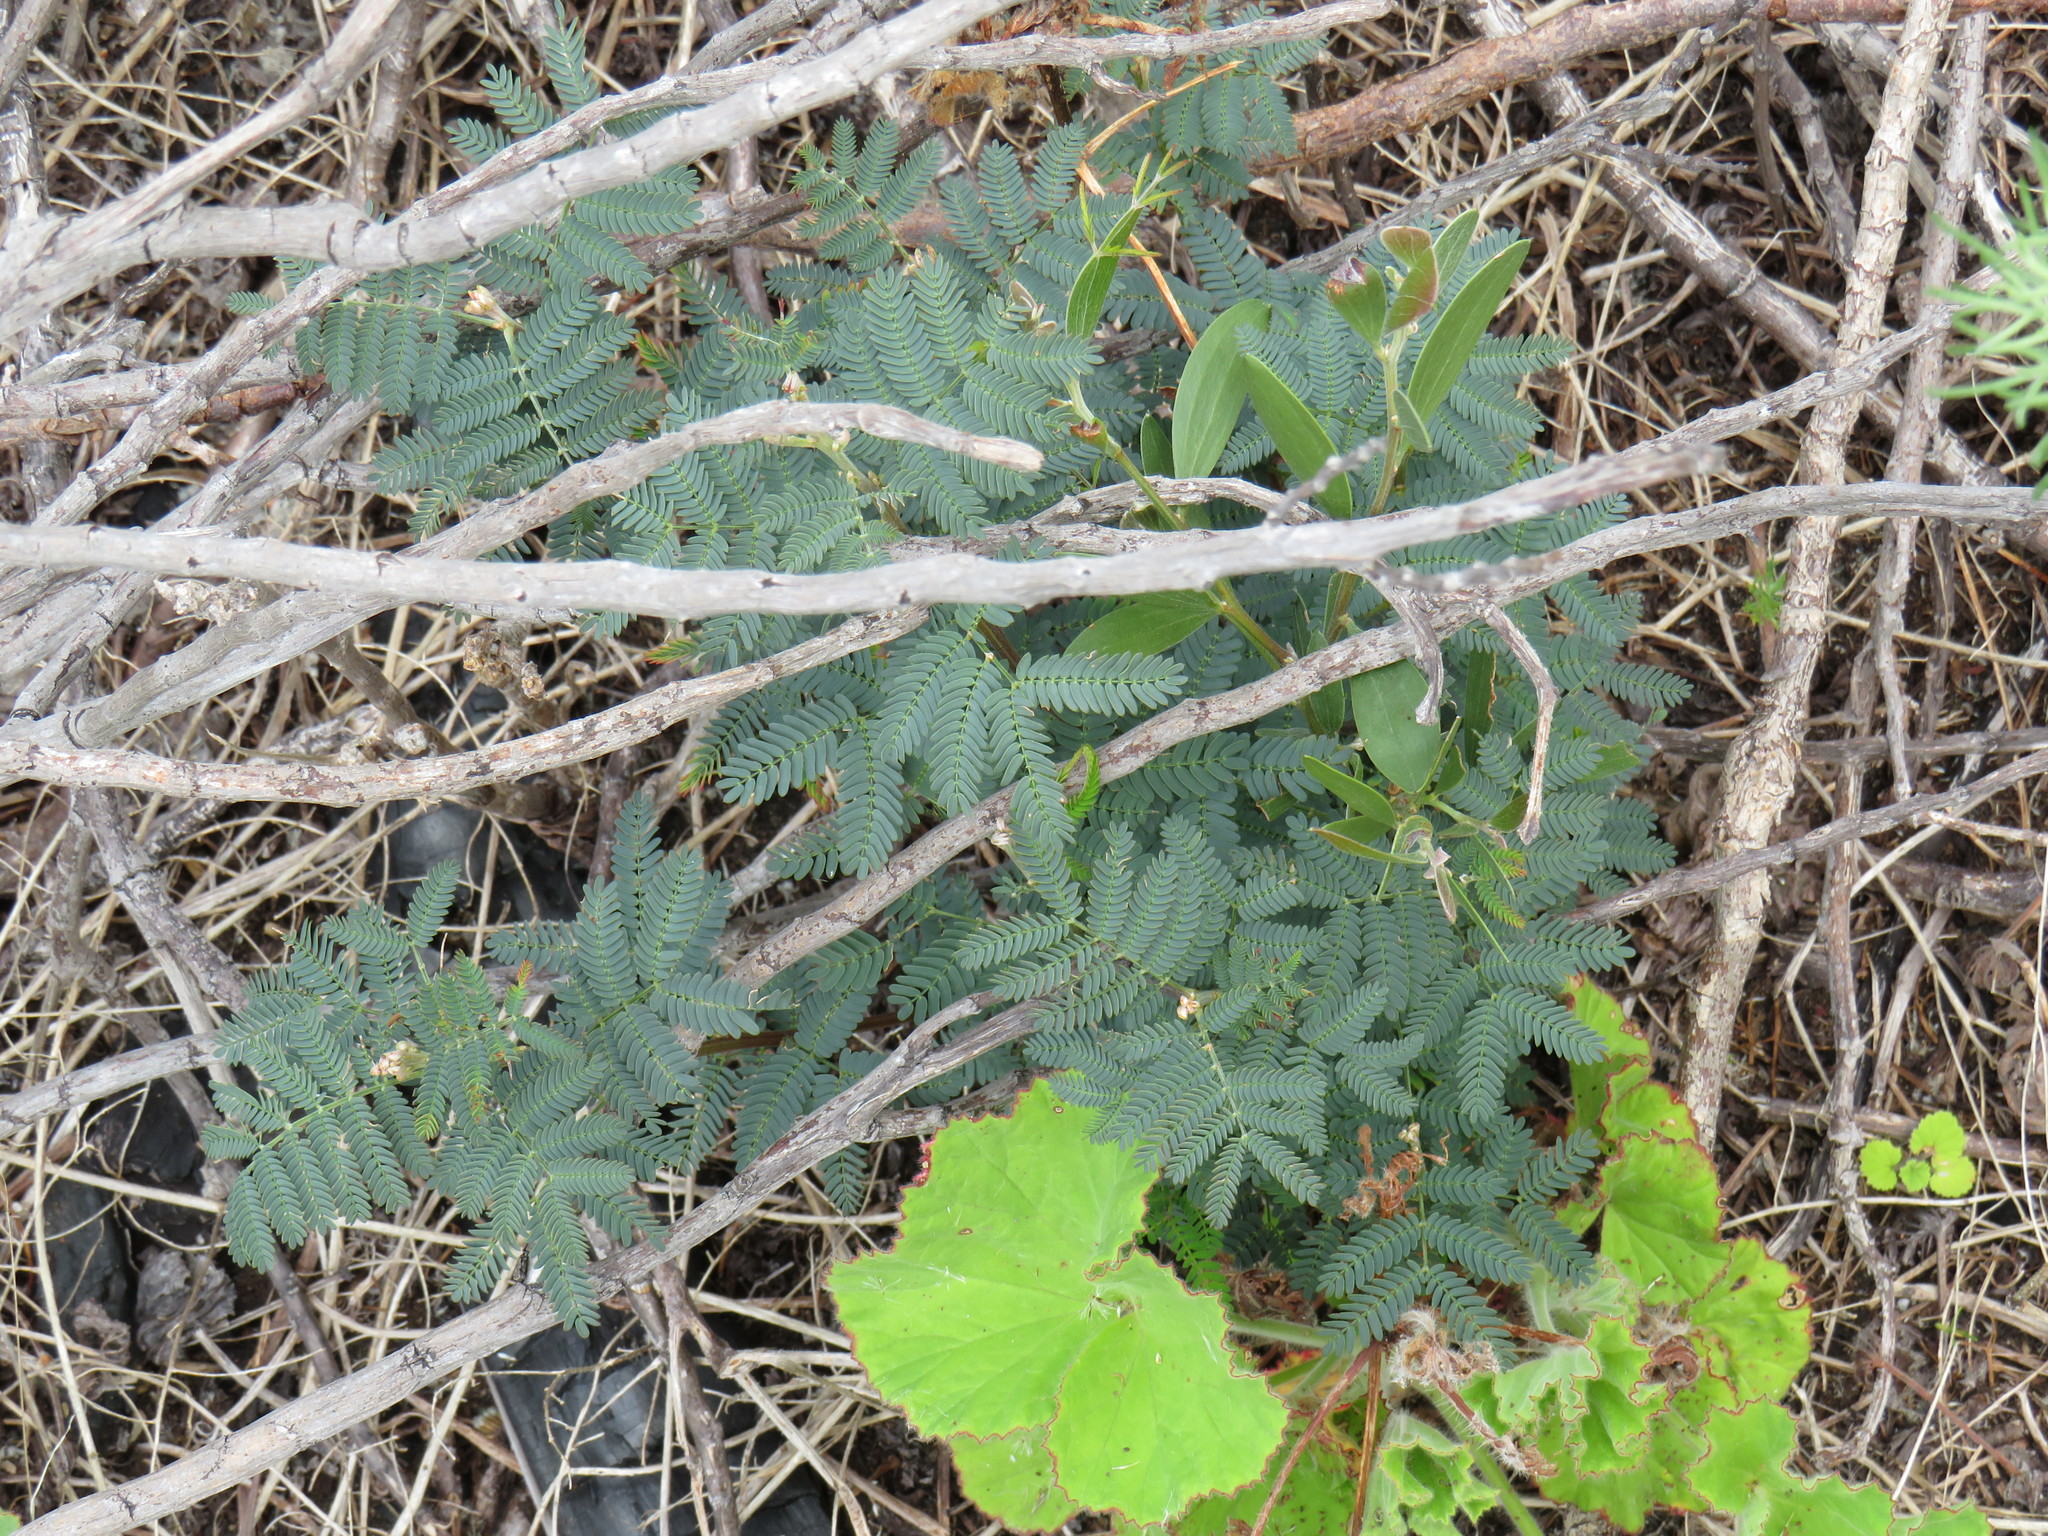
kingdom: Plantae
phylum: Tracheophyta
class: Magnoliopsida
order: Fabales
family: Fabaceae
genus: Acacia
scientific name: Acacia melanoxylon
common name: Blackwood
